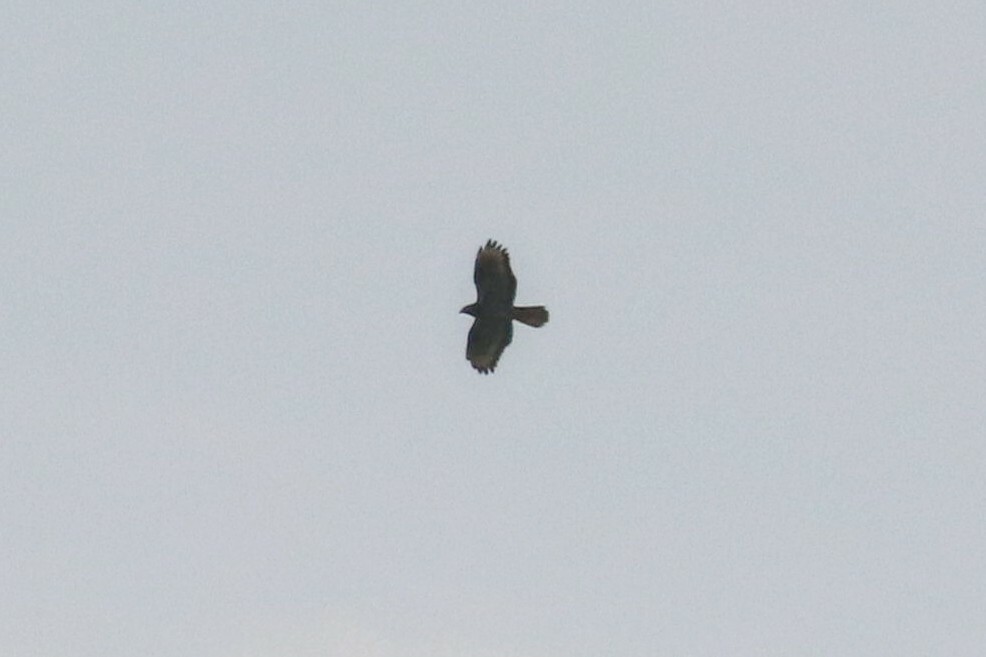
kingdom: Animalia
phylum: Chordata
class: Aves
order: Accipitriformes
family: Accipitridae
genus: Pernis
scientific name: Pernis apivorus
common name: European honey buzzard
